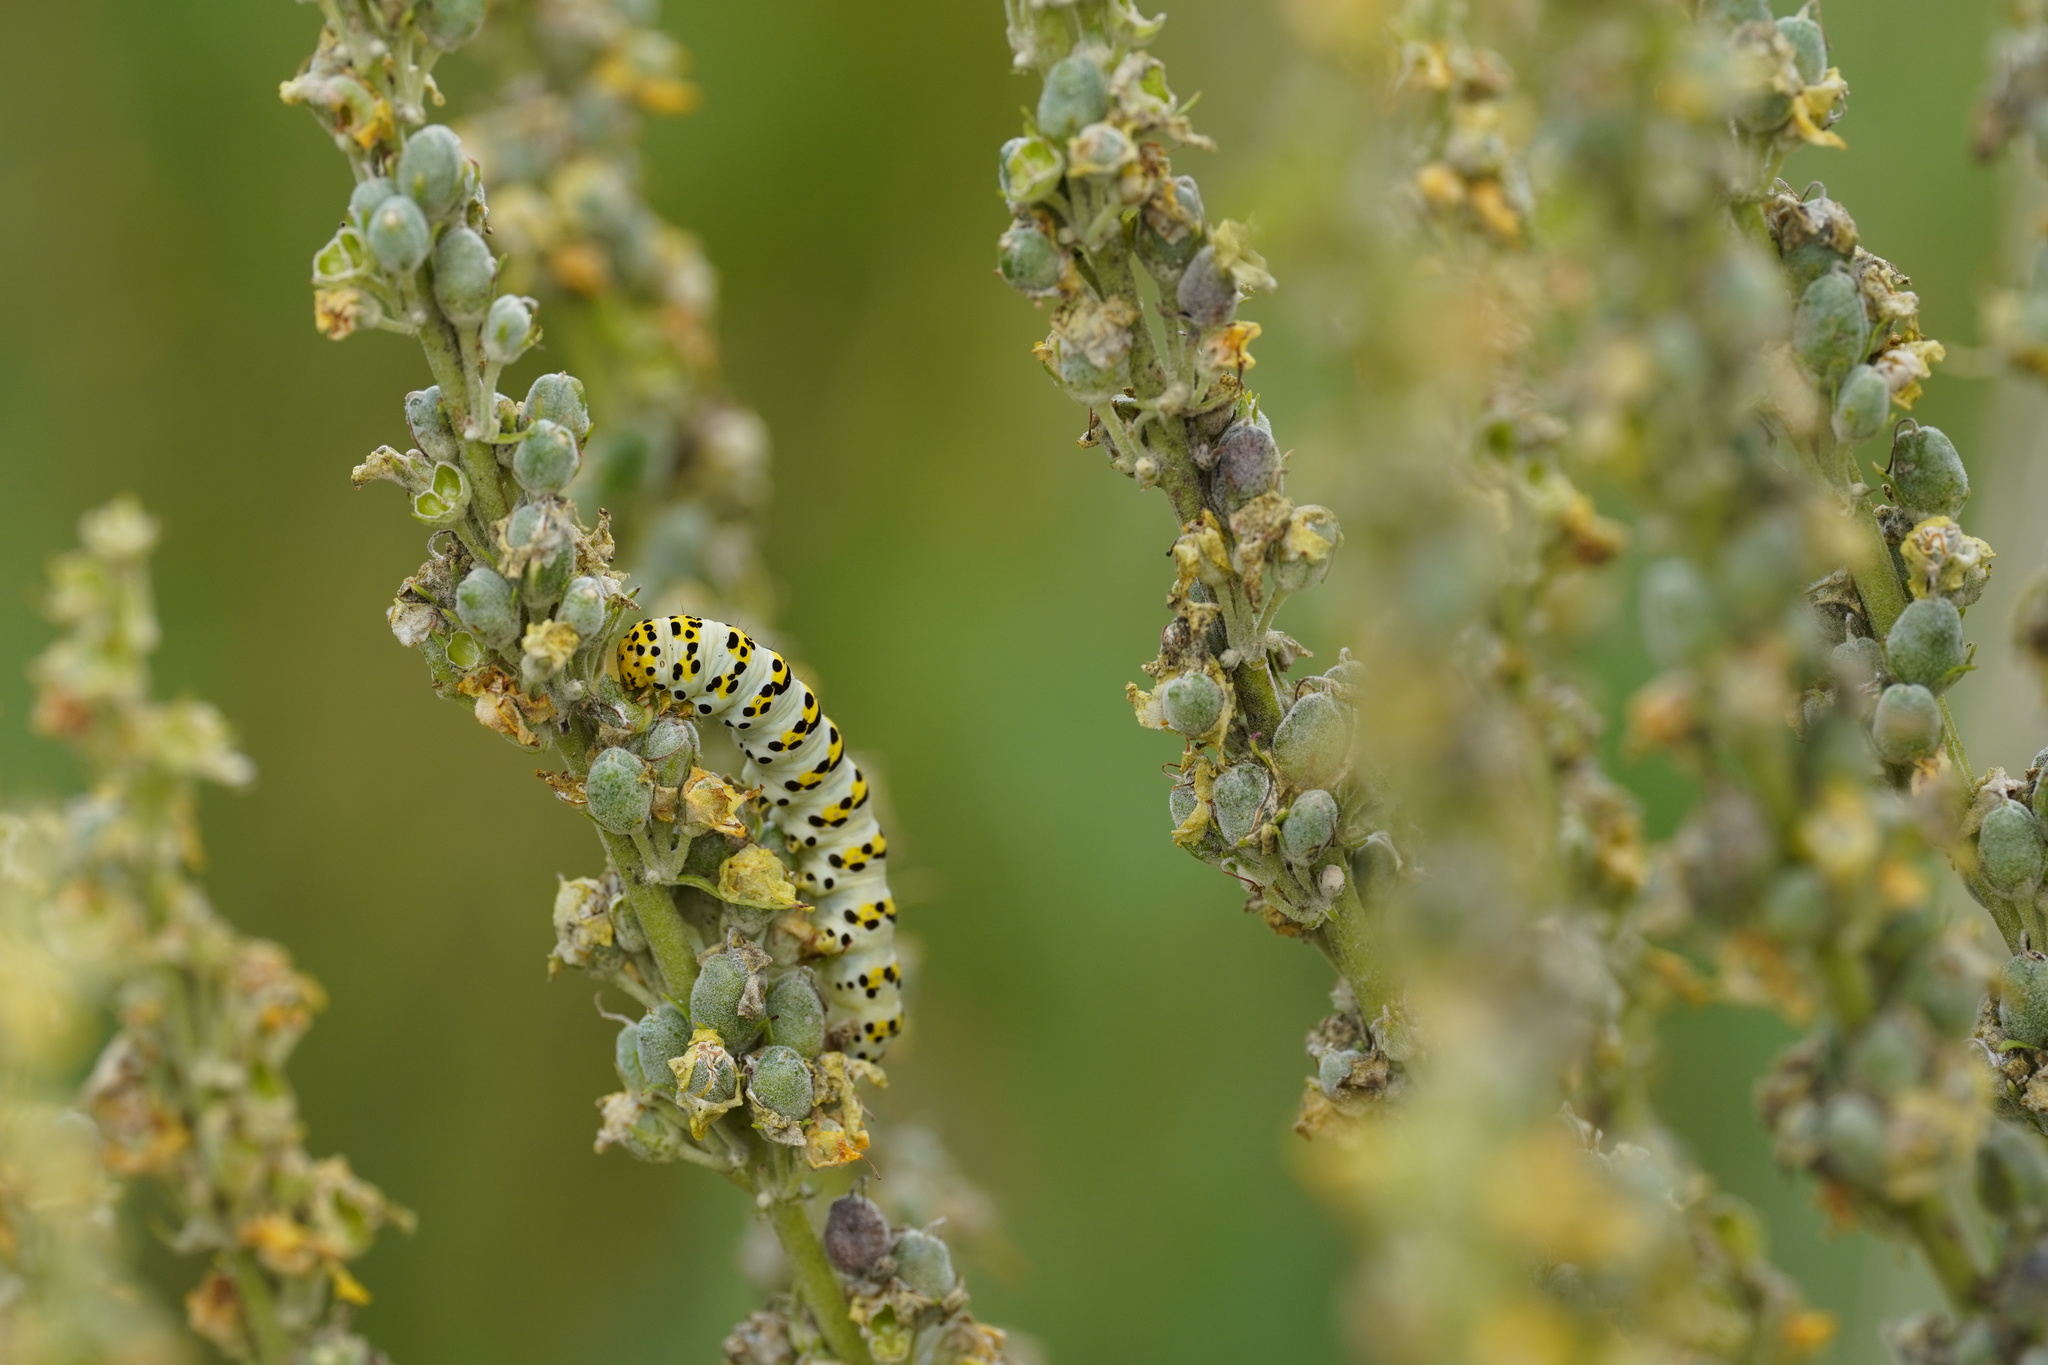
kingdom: Animalia
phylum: Arthropoda
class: Insecta
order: Lepidoptera
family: Noctuidae
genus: Cucullia
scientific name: Cucullia lychnitis
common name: Striped lychnis
